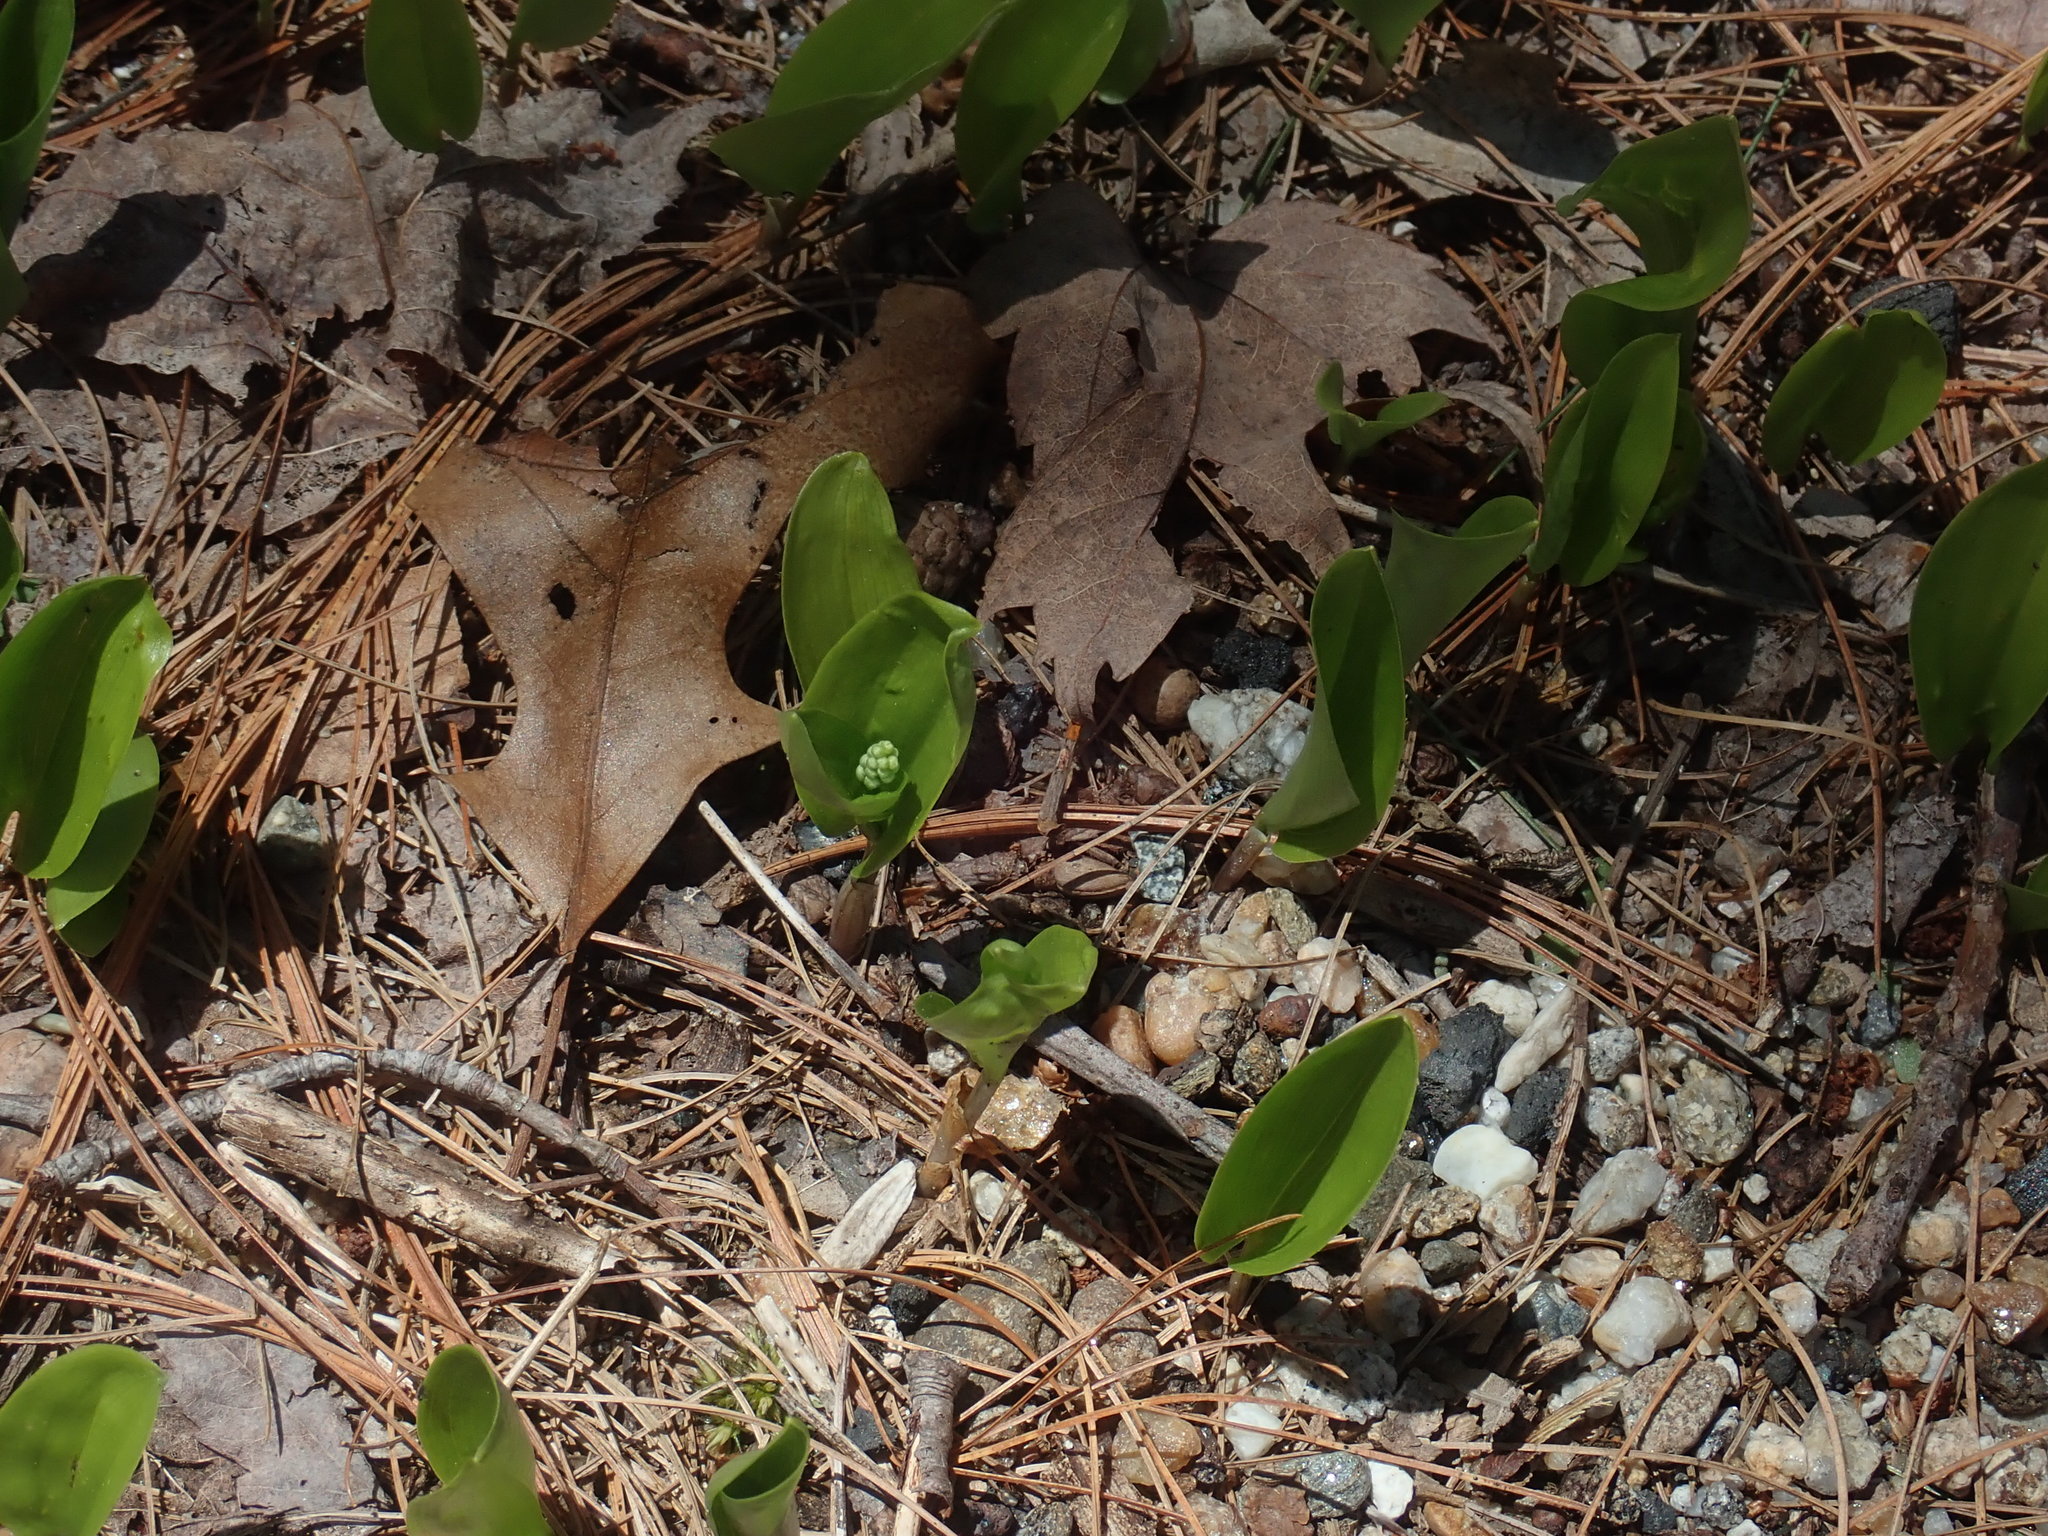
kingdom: Plantae
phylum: Tracheophyta
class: Liliopsida
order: Asparagales
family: Asparagaceae
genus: Maianthemum
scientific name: Maianthemum canadense
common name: False lily-of-the-valley
